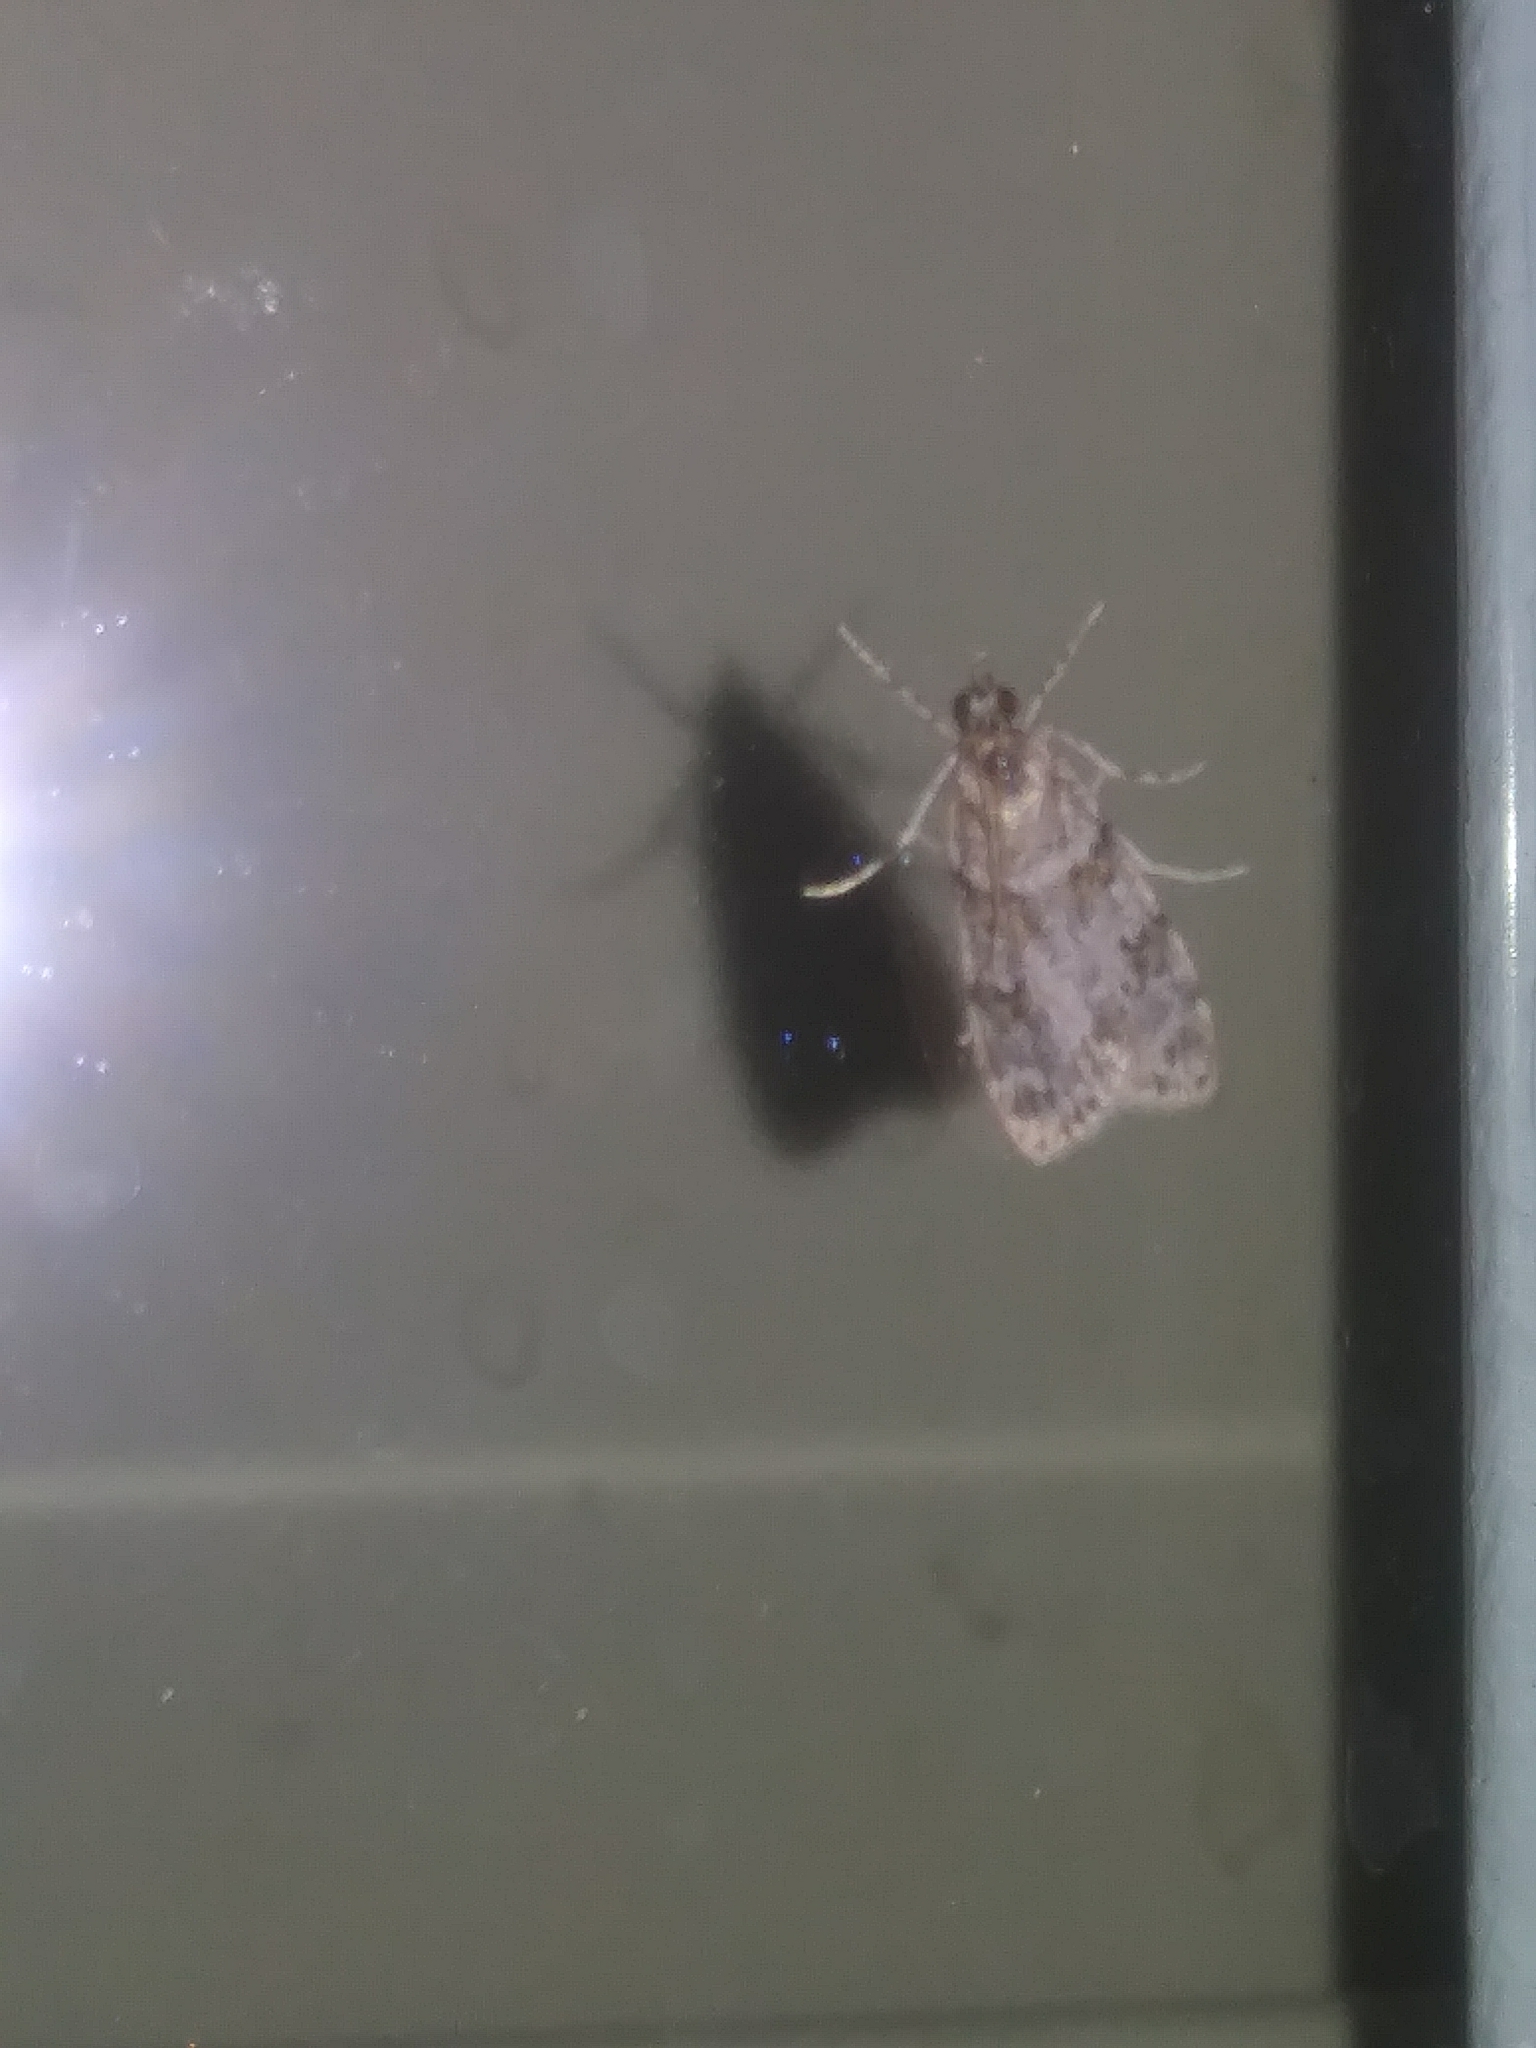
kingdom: Animalia
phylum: Arthropoda
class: Insecta
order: Lepidoptera
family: Crambidae
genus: Scoparia
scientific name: Scoparia biplagialis
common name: Double-striped scoparia moth
